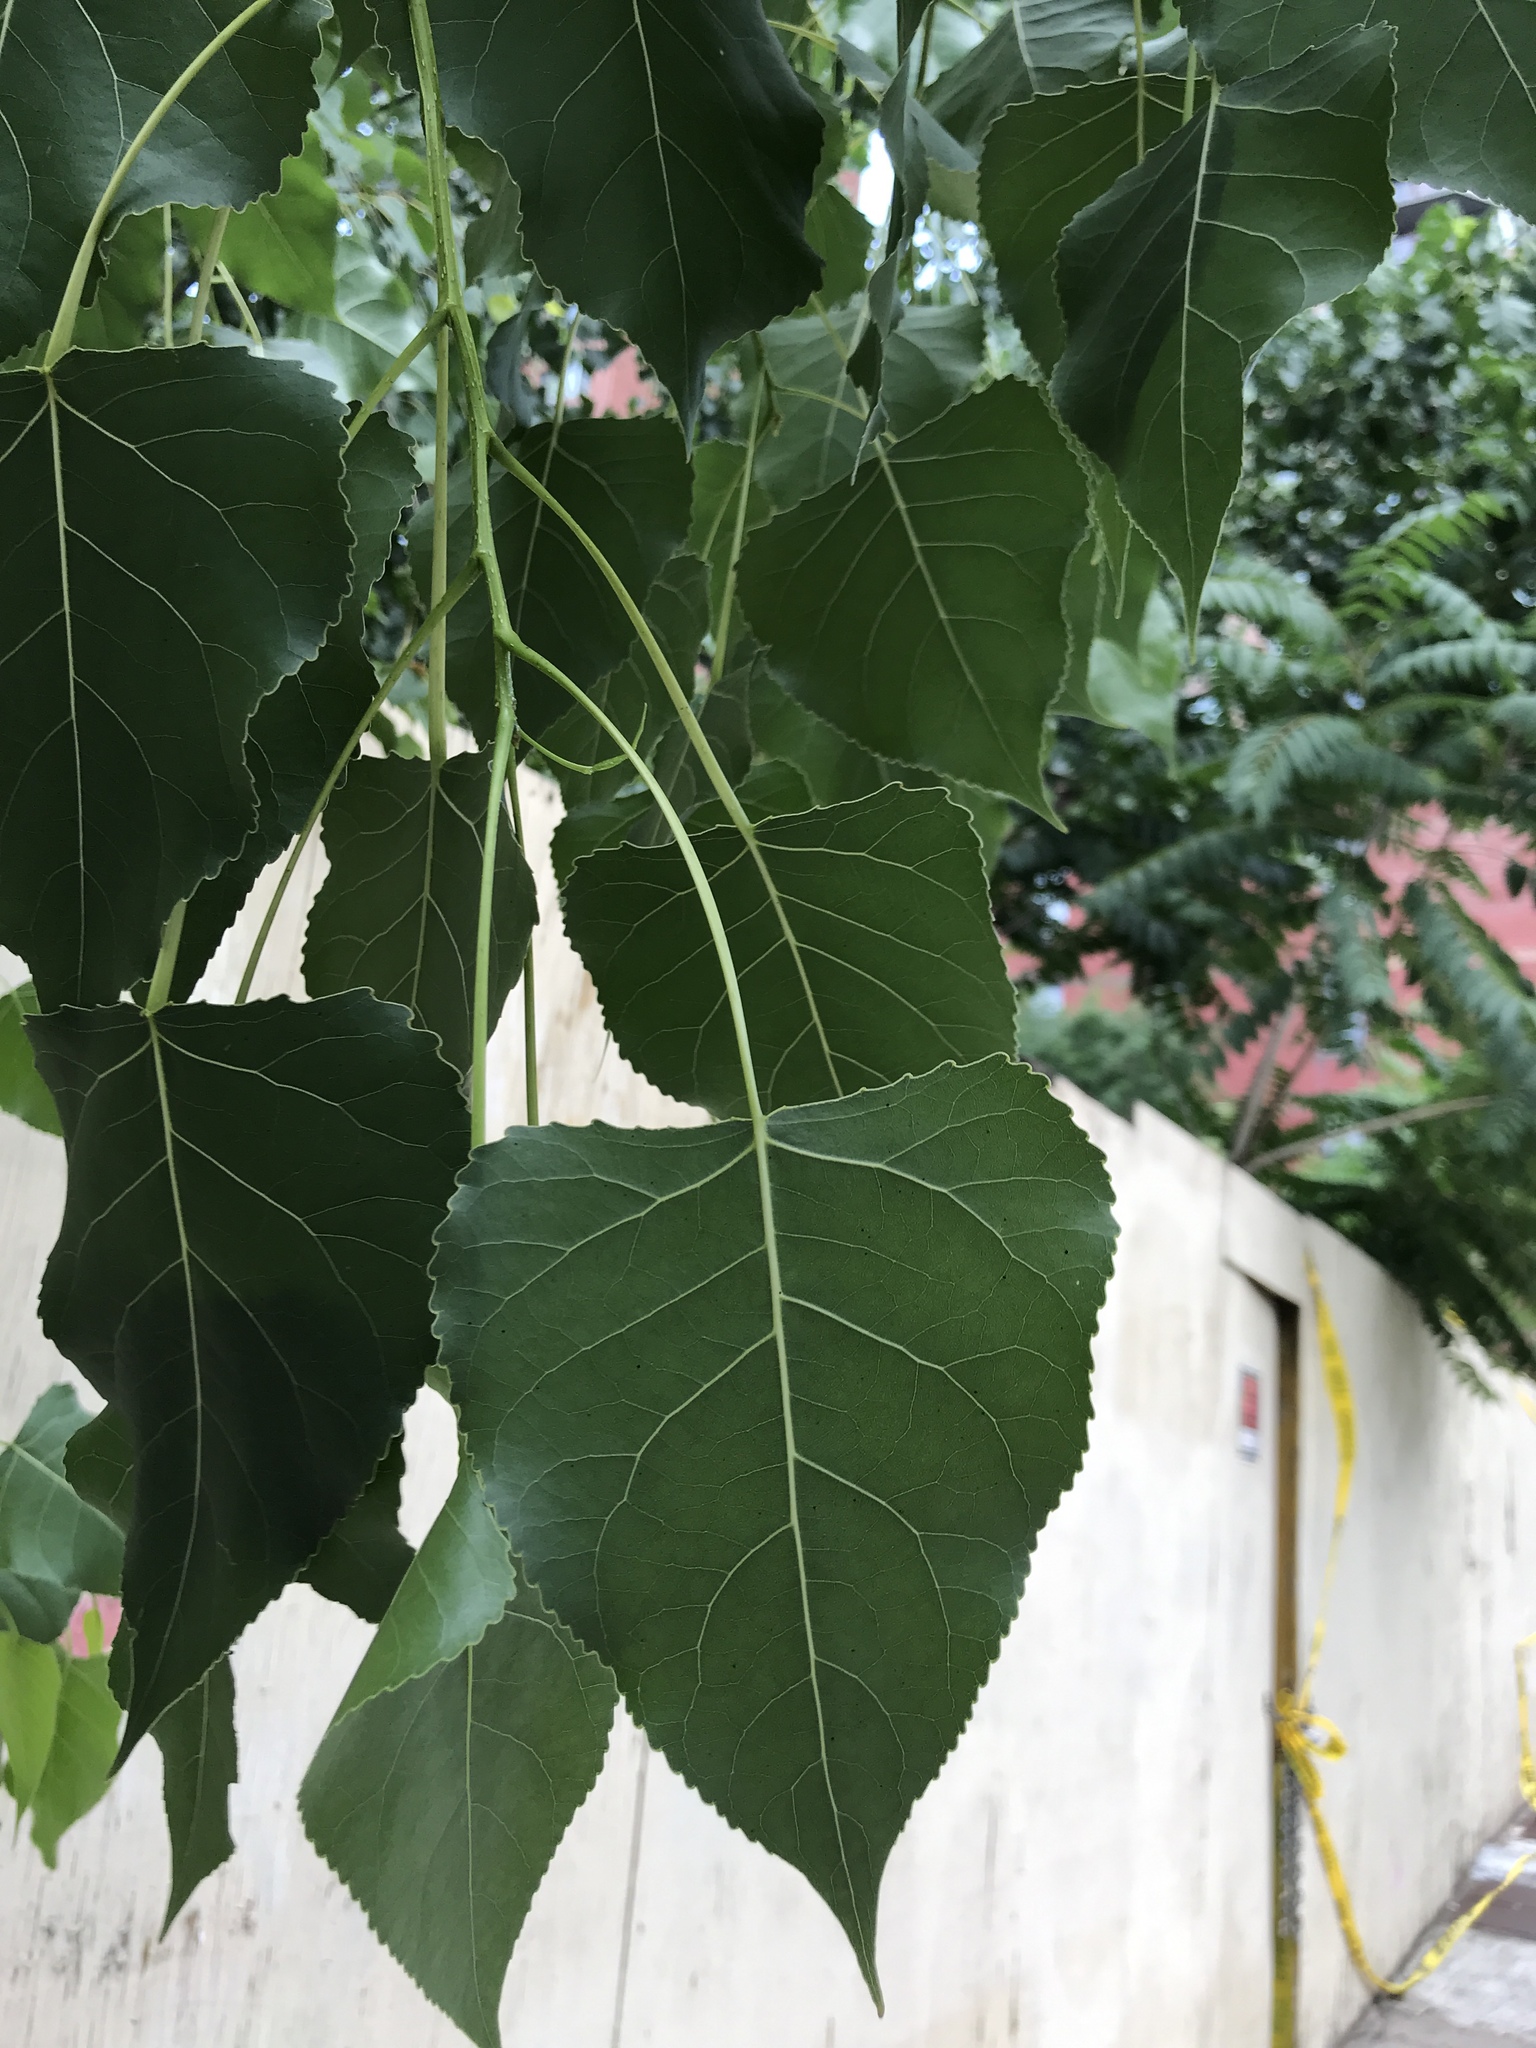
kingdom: Plantae
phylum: Tracheophyta
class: Magnoliopsida
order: Malpighiales
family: Salicaceae
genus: Populus
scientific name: Populus deltoides
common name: Eastern cottonwood
